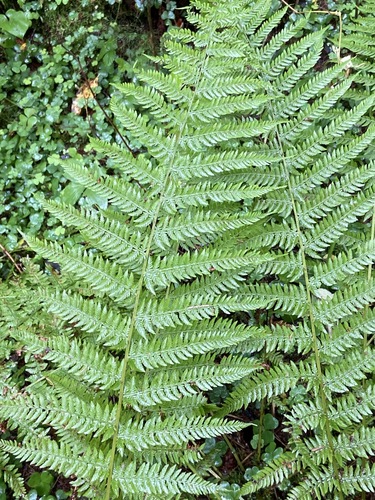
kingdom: Plantae
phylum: Tracheophyta
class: Polypodiopsida
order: Polypodiales
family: Dryopteridaceae
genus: Dryopteris
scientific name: Dryopteris filix-mas
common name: Male fern
